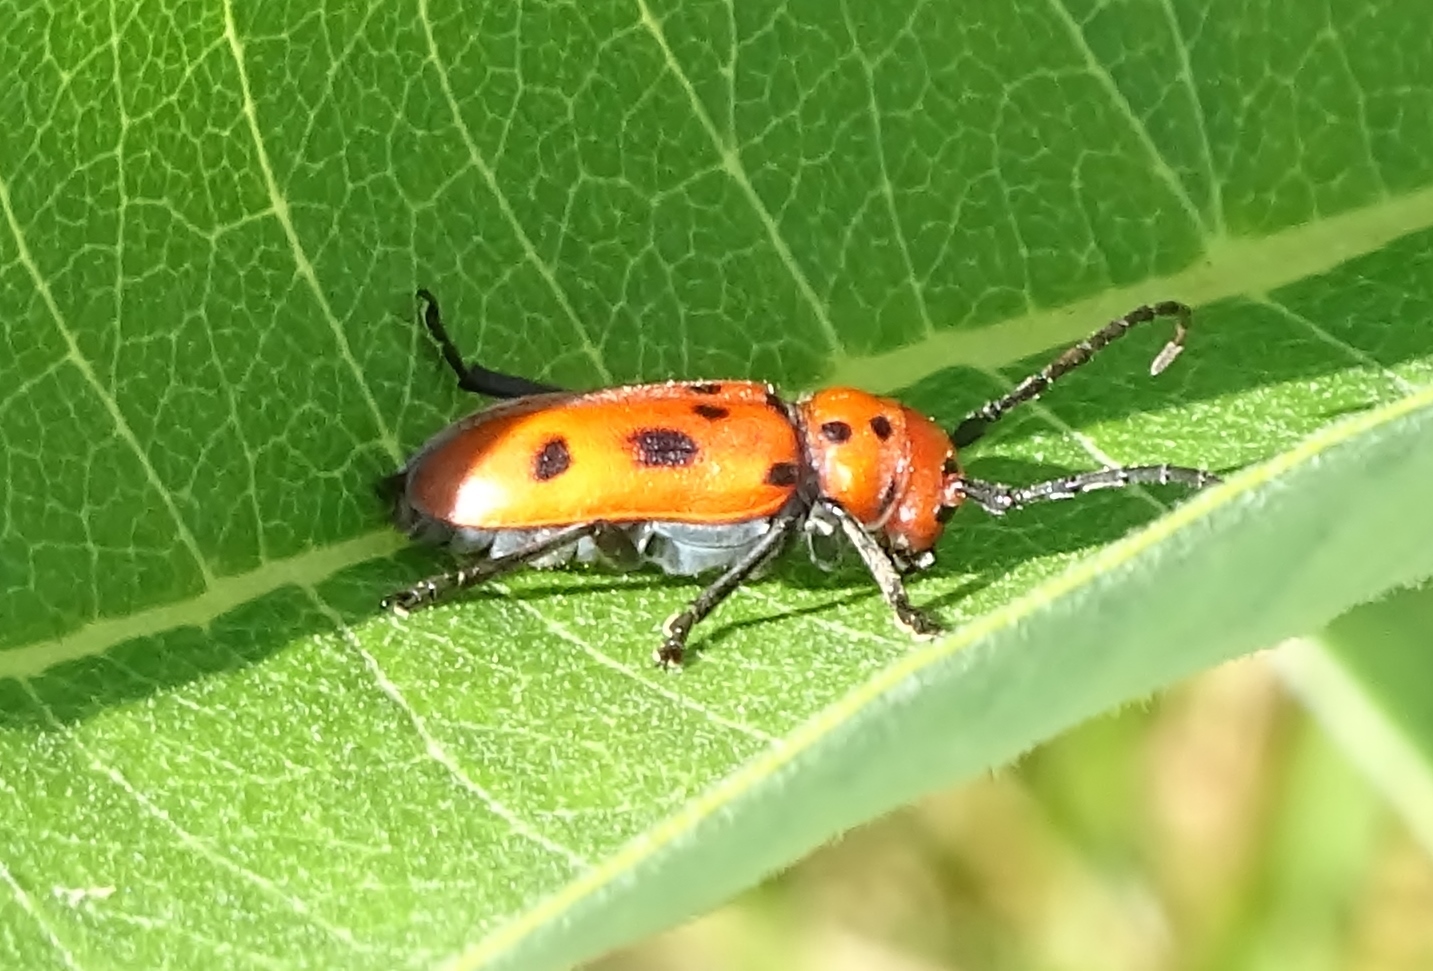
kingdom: Animalia
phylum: Arthropoda
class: Insecta
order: Coleoptera
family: Cerambycidae
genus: Tetraopes
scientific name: Tetraopes tetrophthalmus
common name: Red milkweed beetle
